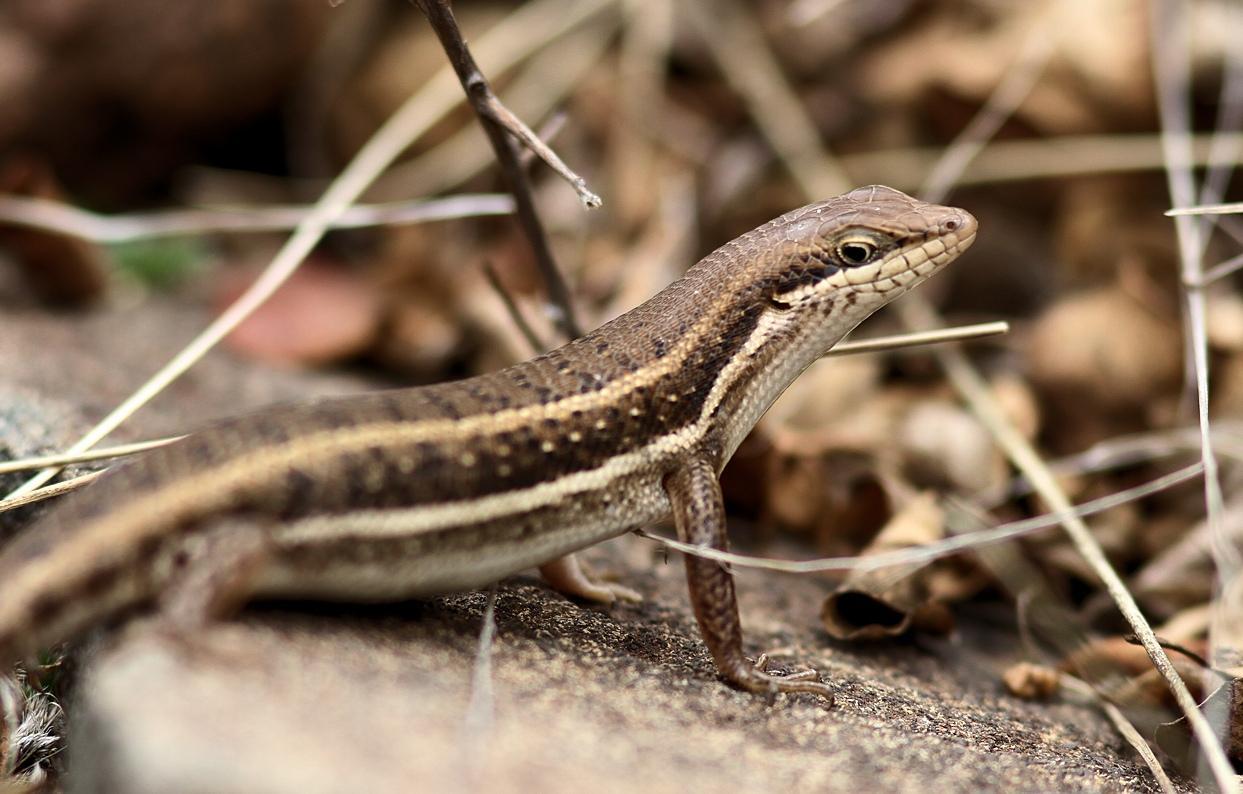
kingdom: Animalia
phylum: Chordata
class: Squamata
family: Scincidae
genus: Trachylepis
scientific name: Trachylepis damarana
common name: Damara skink
